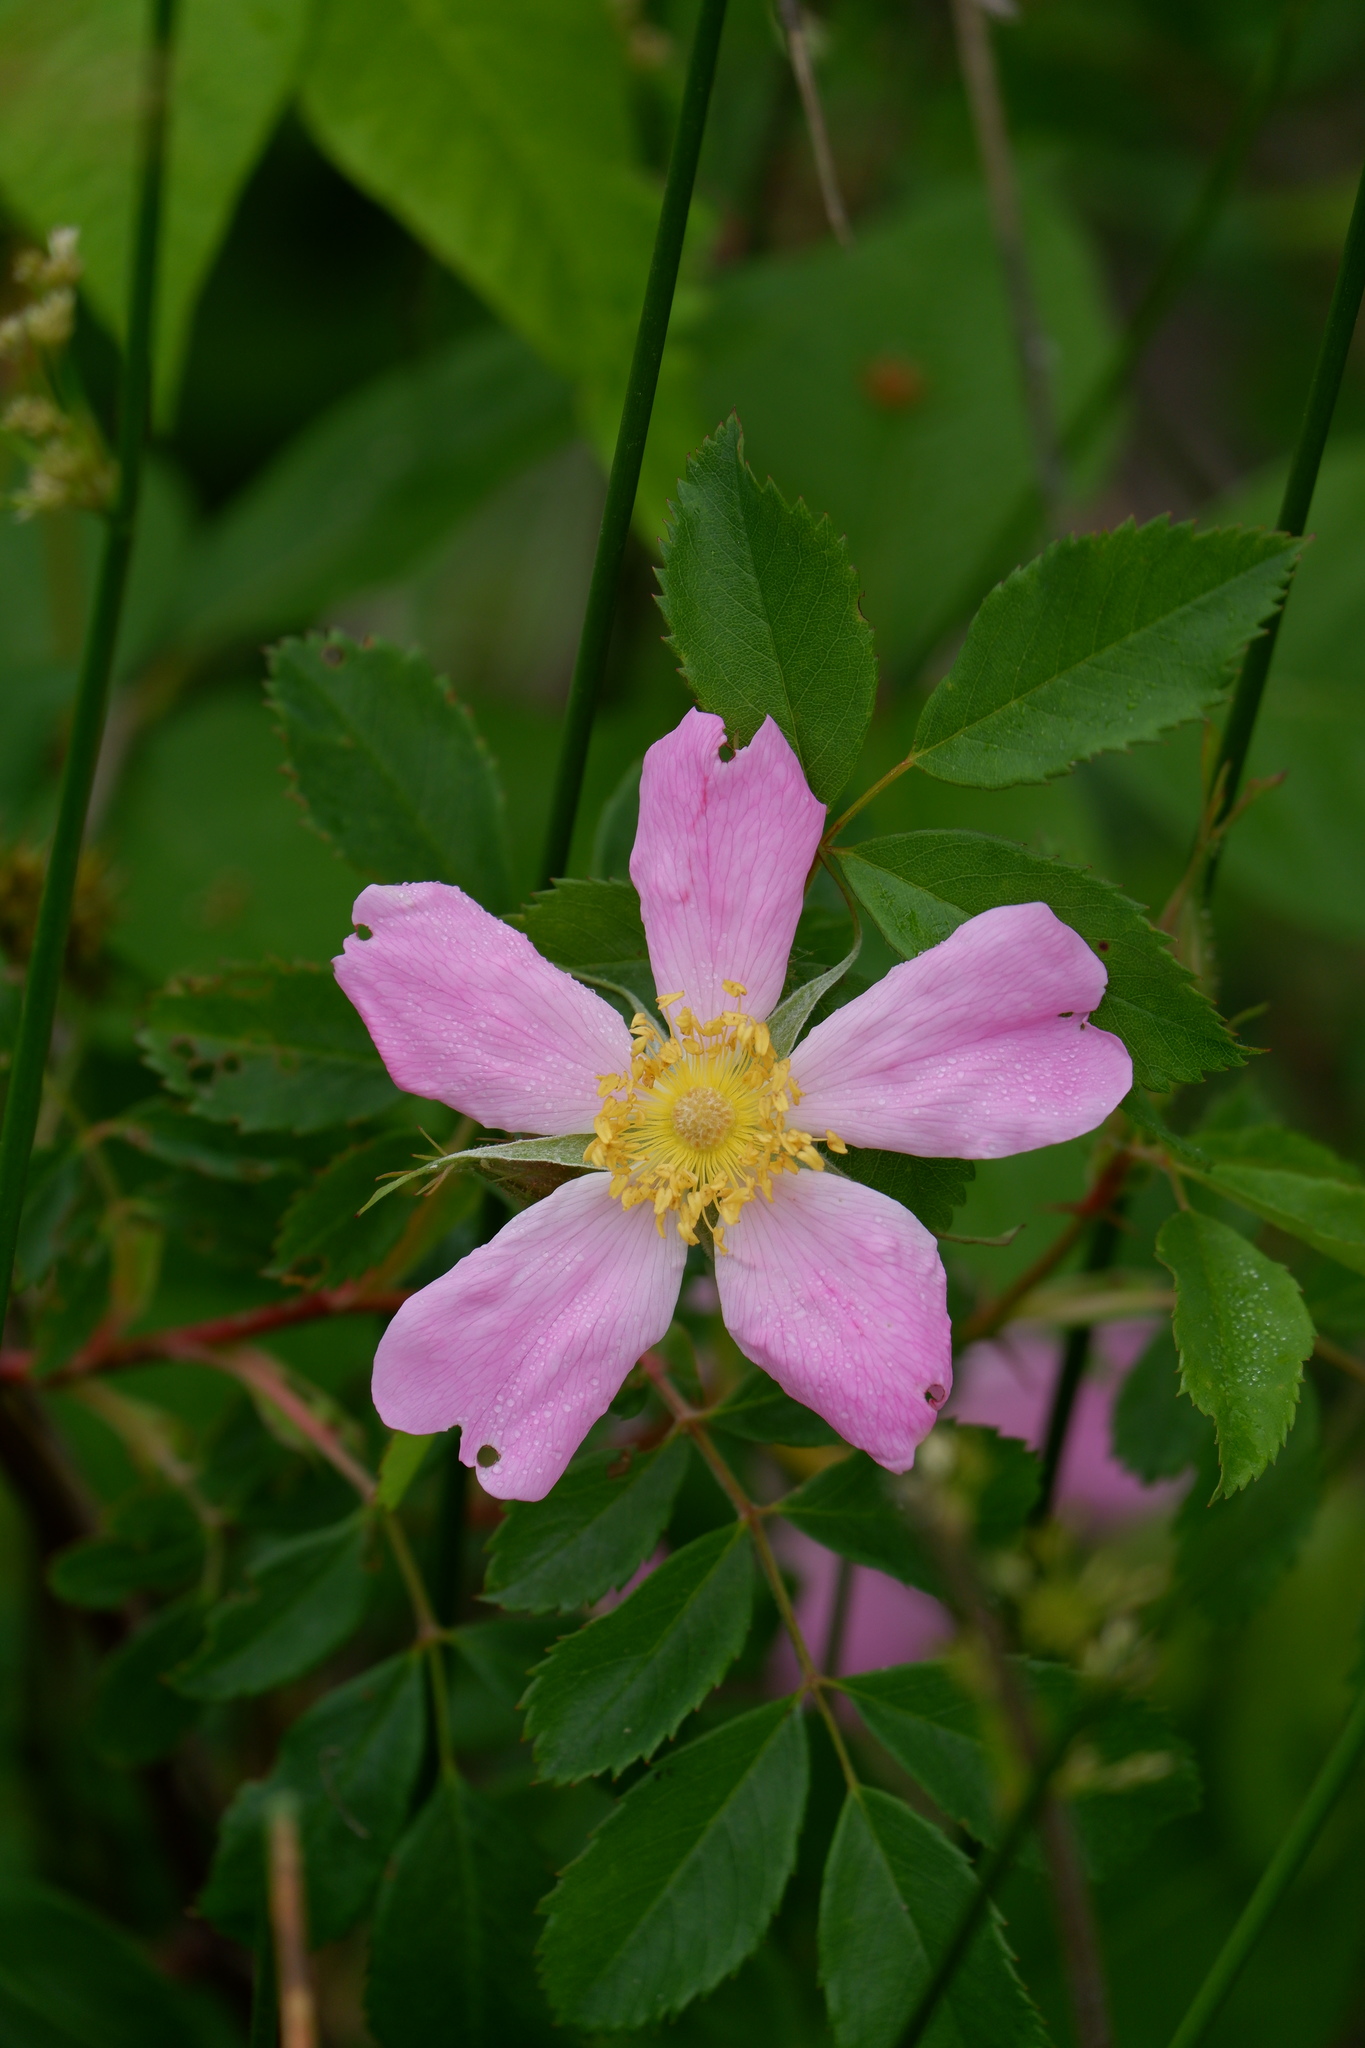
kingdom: Plantae
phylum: Tracheophyta
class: Magnoliopsida
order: Rosales
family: Rosaceae
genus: Rosa
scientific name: Rosa carolina
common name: Pasture rose
